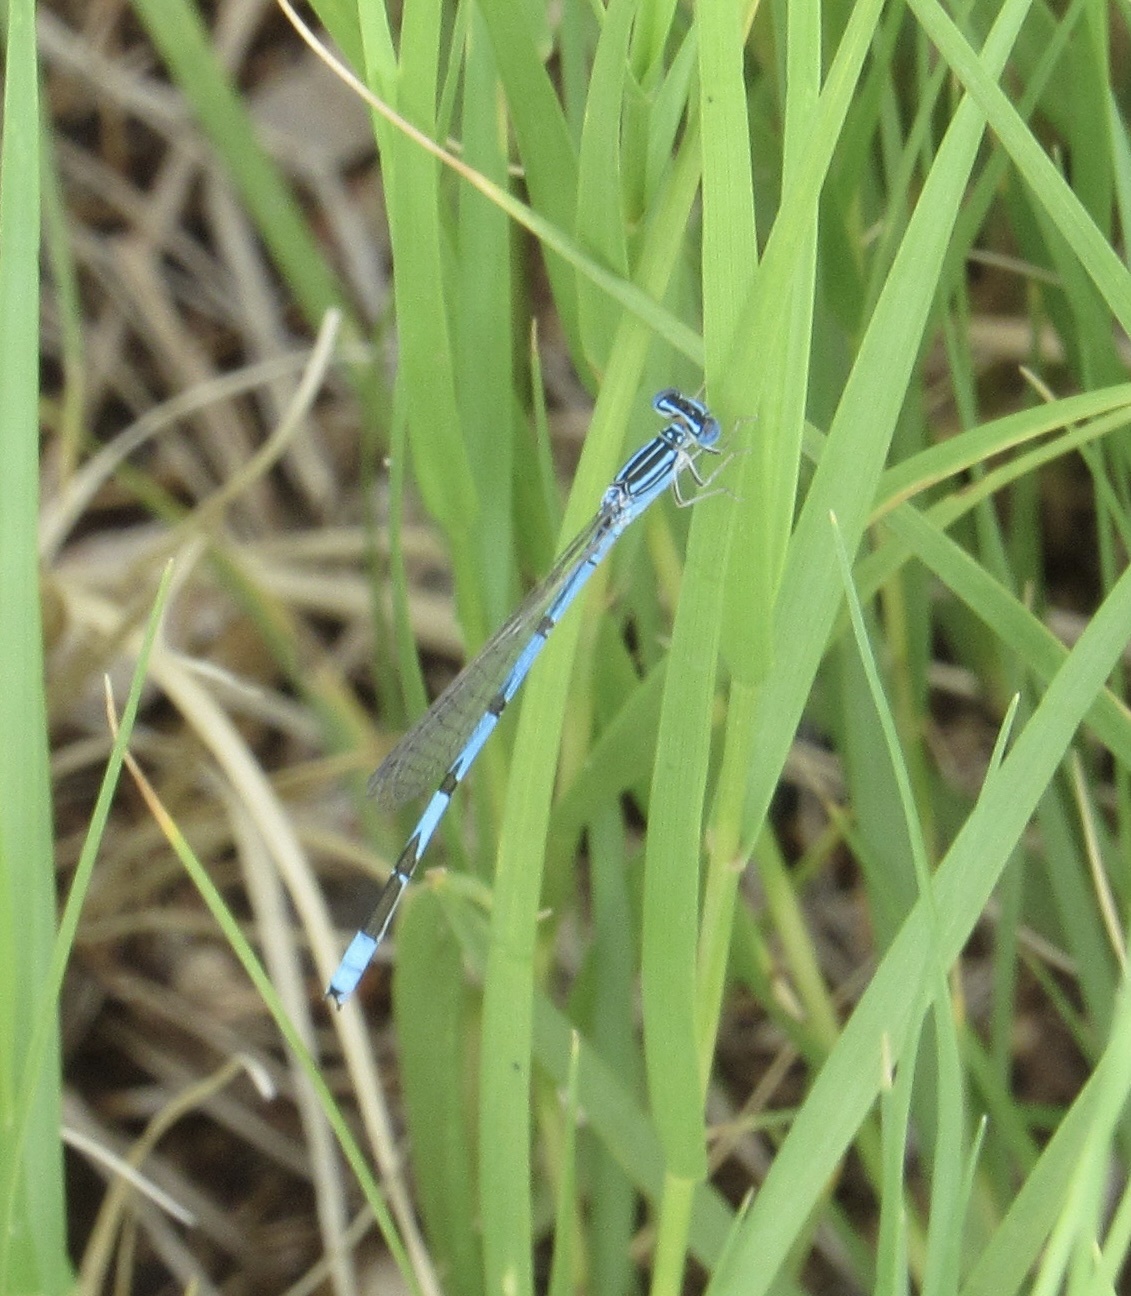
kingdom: Animalia
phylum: Arthropoda
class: Insecta
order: Odonata
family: Coenagrionidae
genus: Enallagma
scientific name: Enallagma basidens
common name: Double-striped bluet
